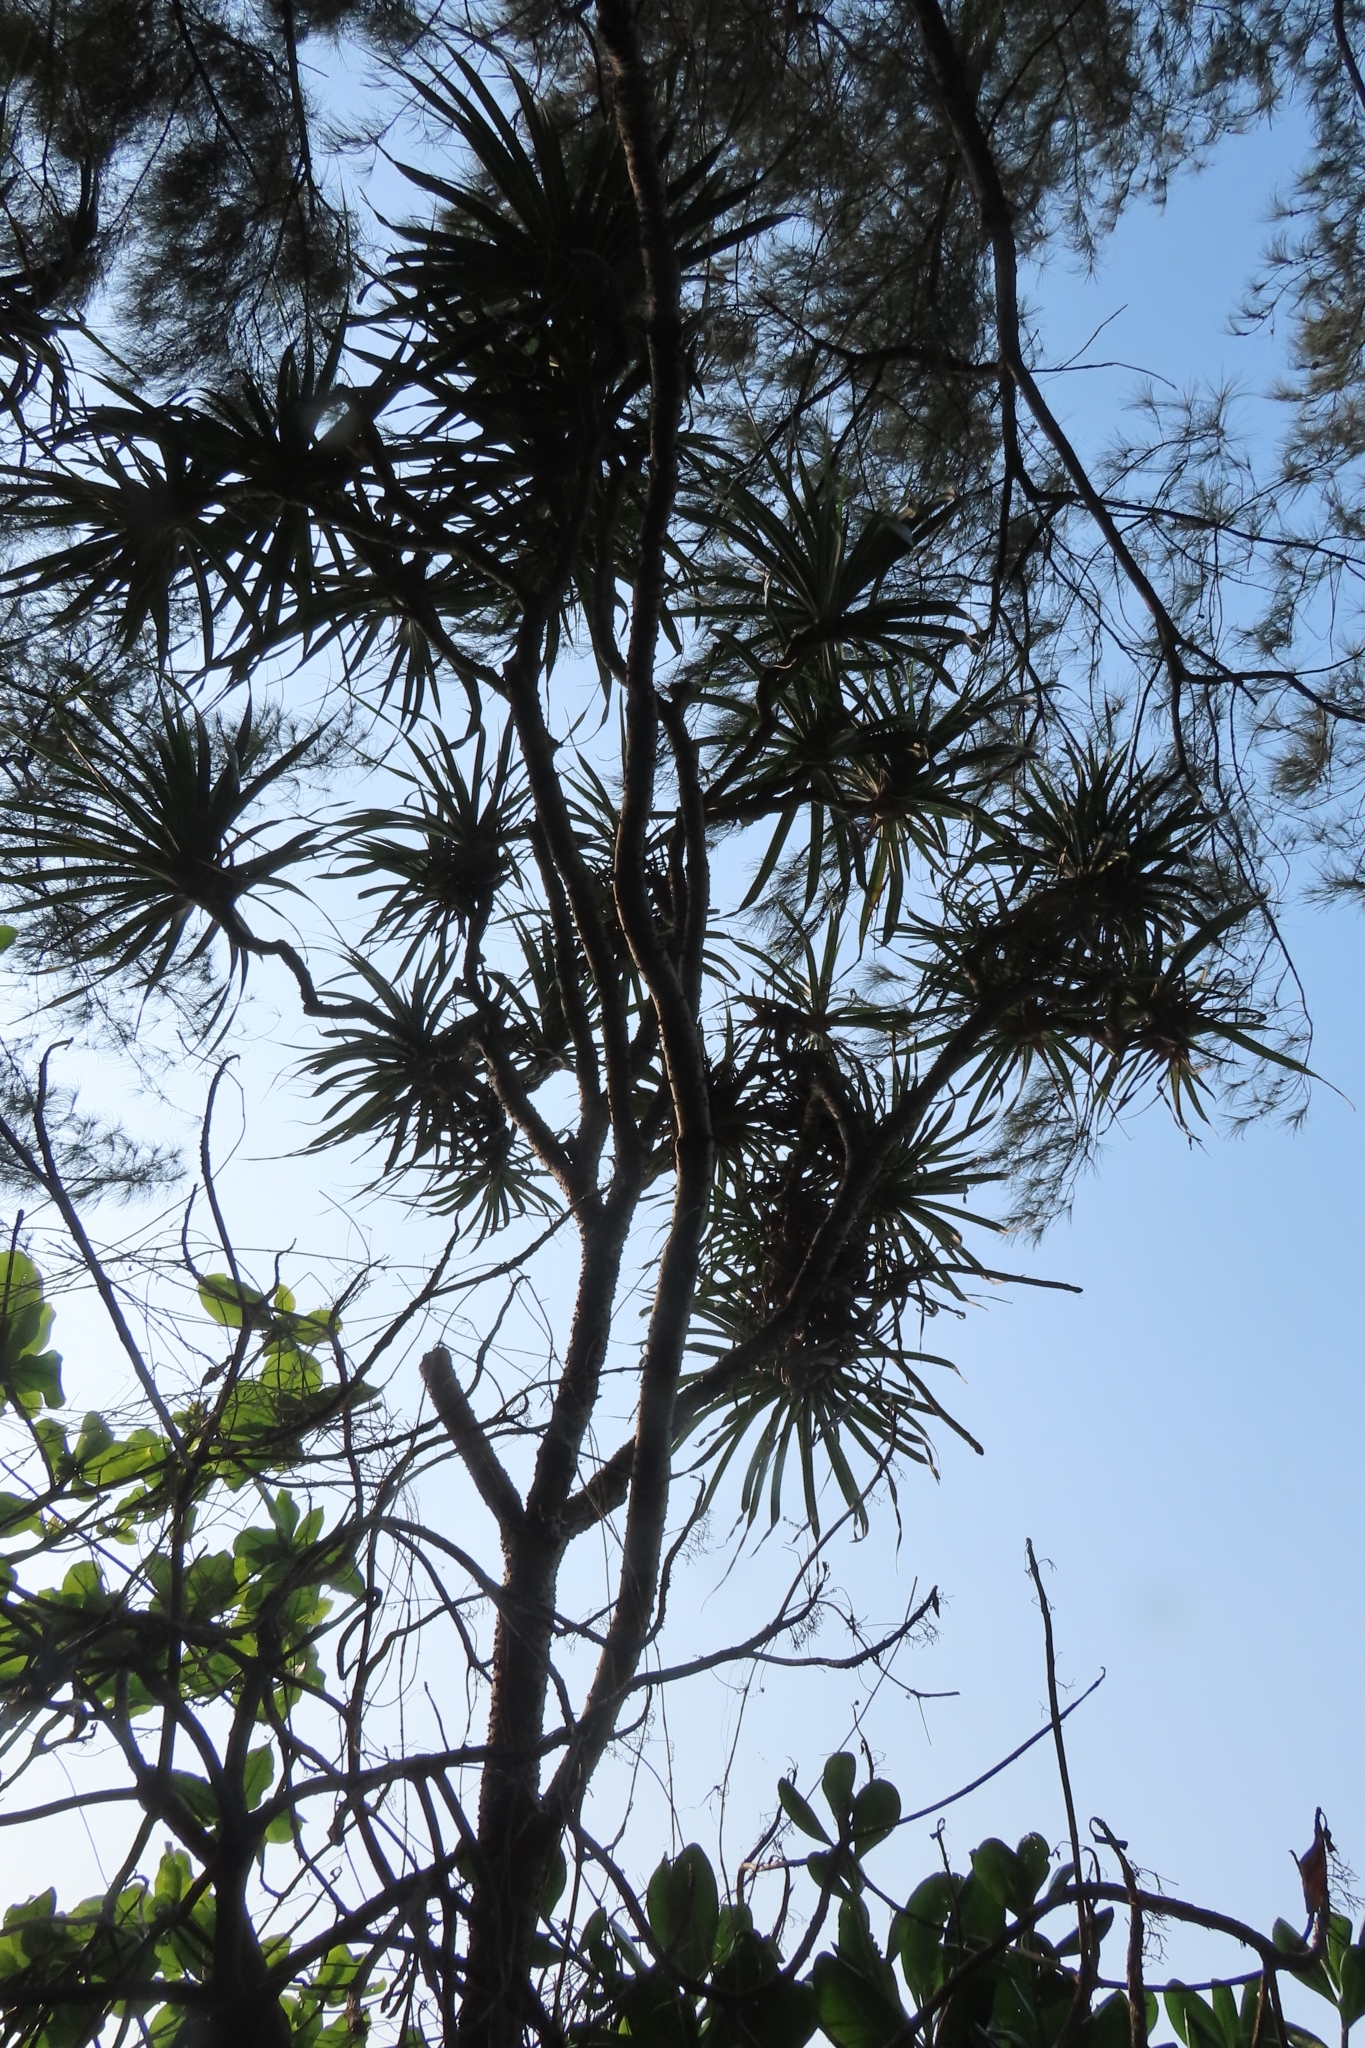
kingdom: Plantae
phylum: Tracheophyta
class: Liliopsida
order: Pandanales
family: Pandanaceae
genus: Pandanus
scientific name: Pandanus odorifer
